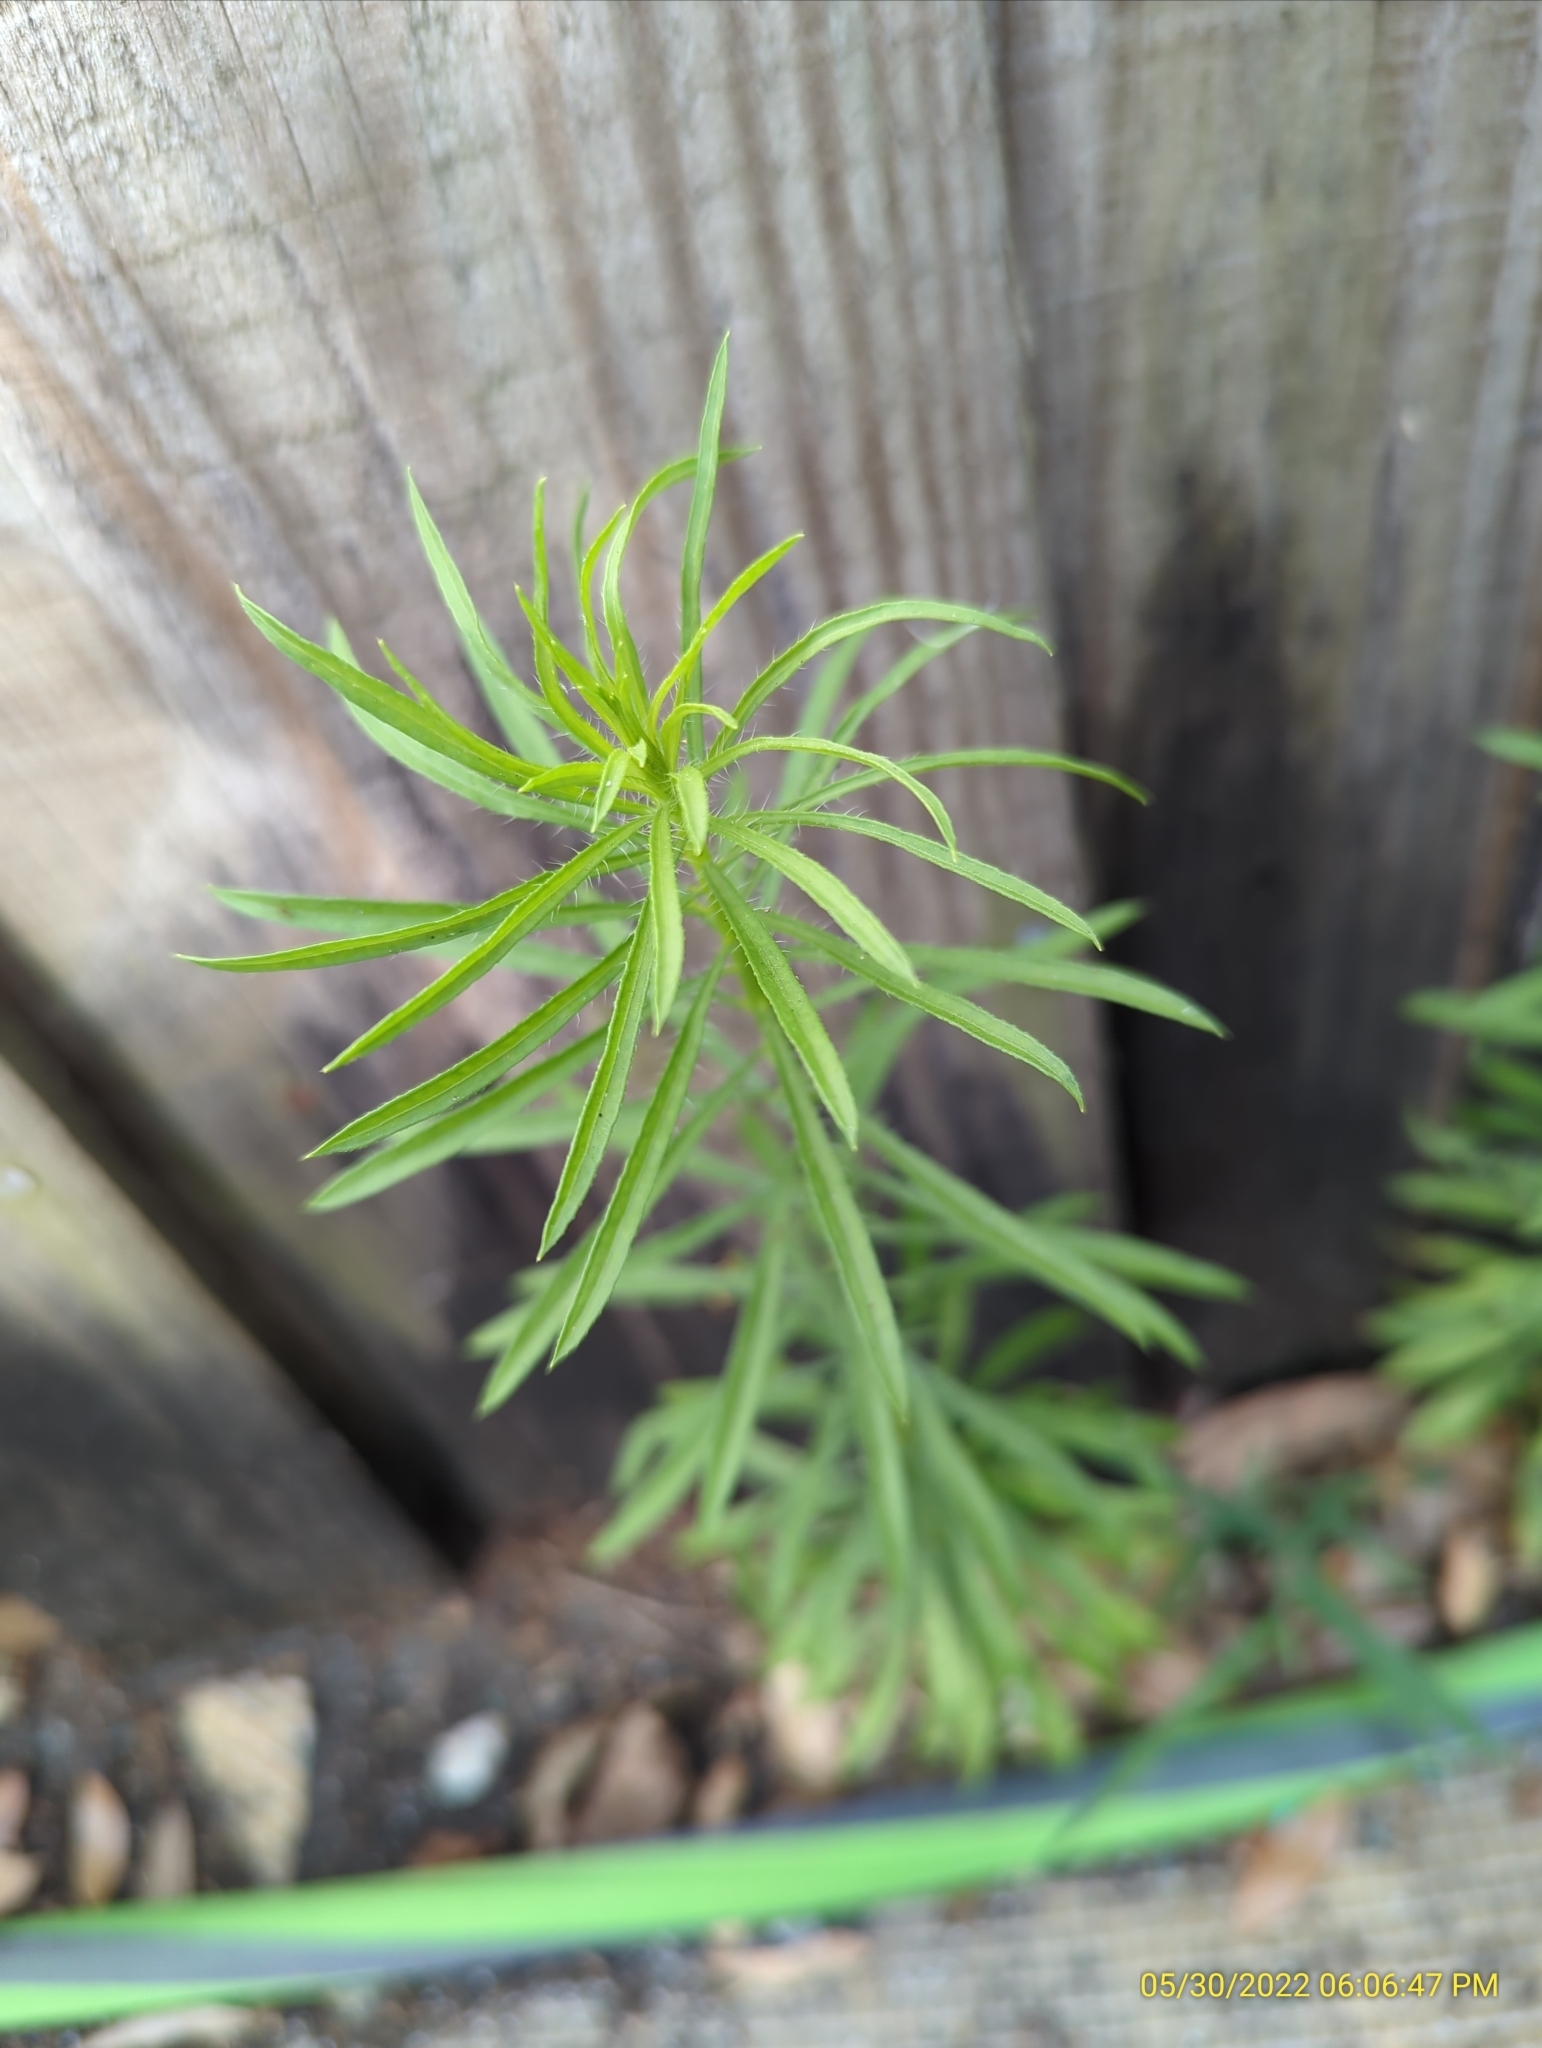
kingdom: Plantae
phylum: Tracheophyta
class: Magnoliopsida
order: Asterales
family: Asteraceae
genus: Erigeron
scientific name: Erigeron canadensis
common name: Canadian fleabane
